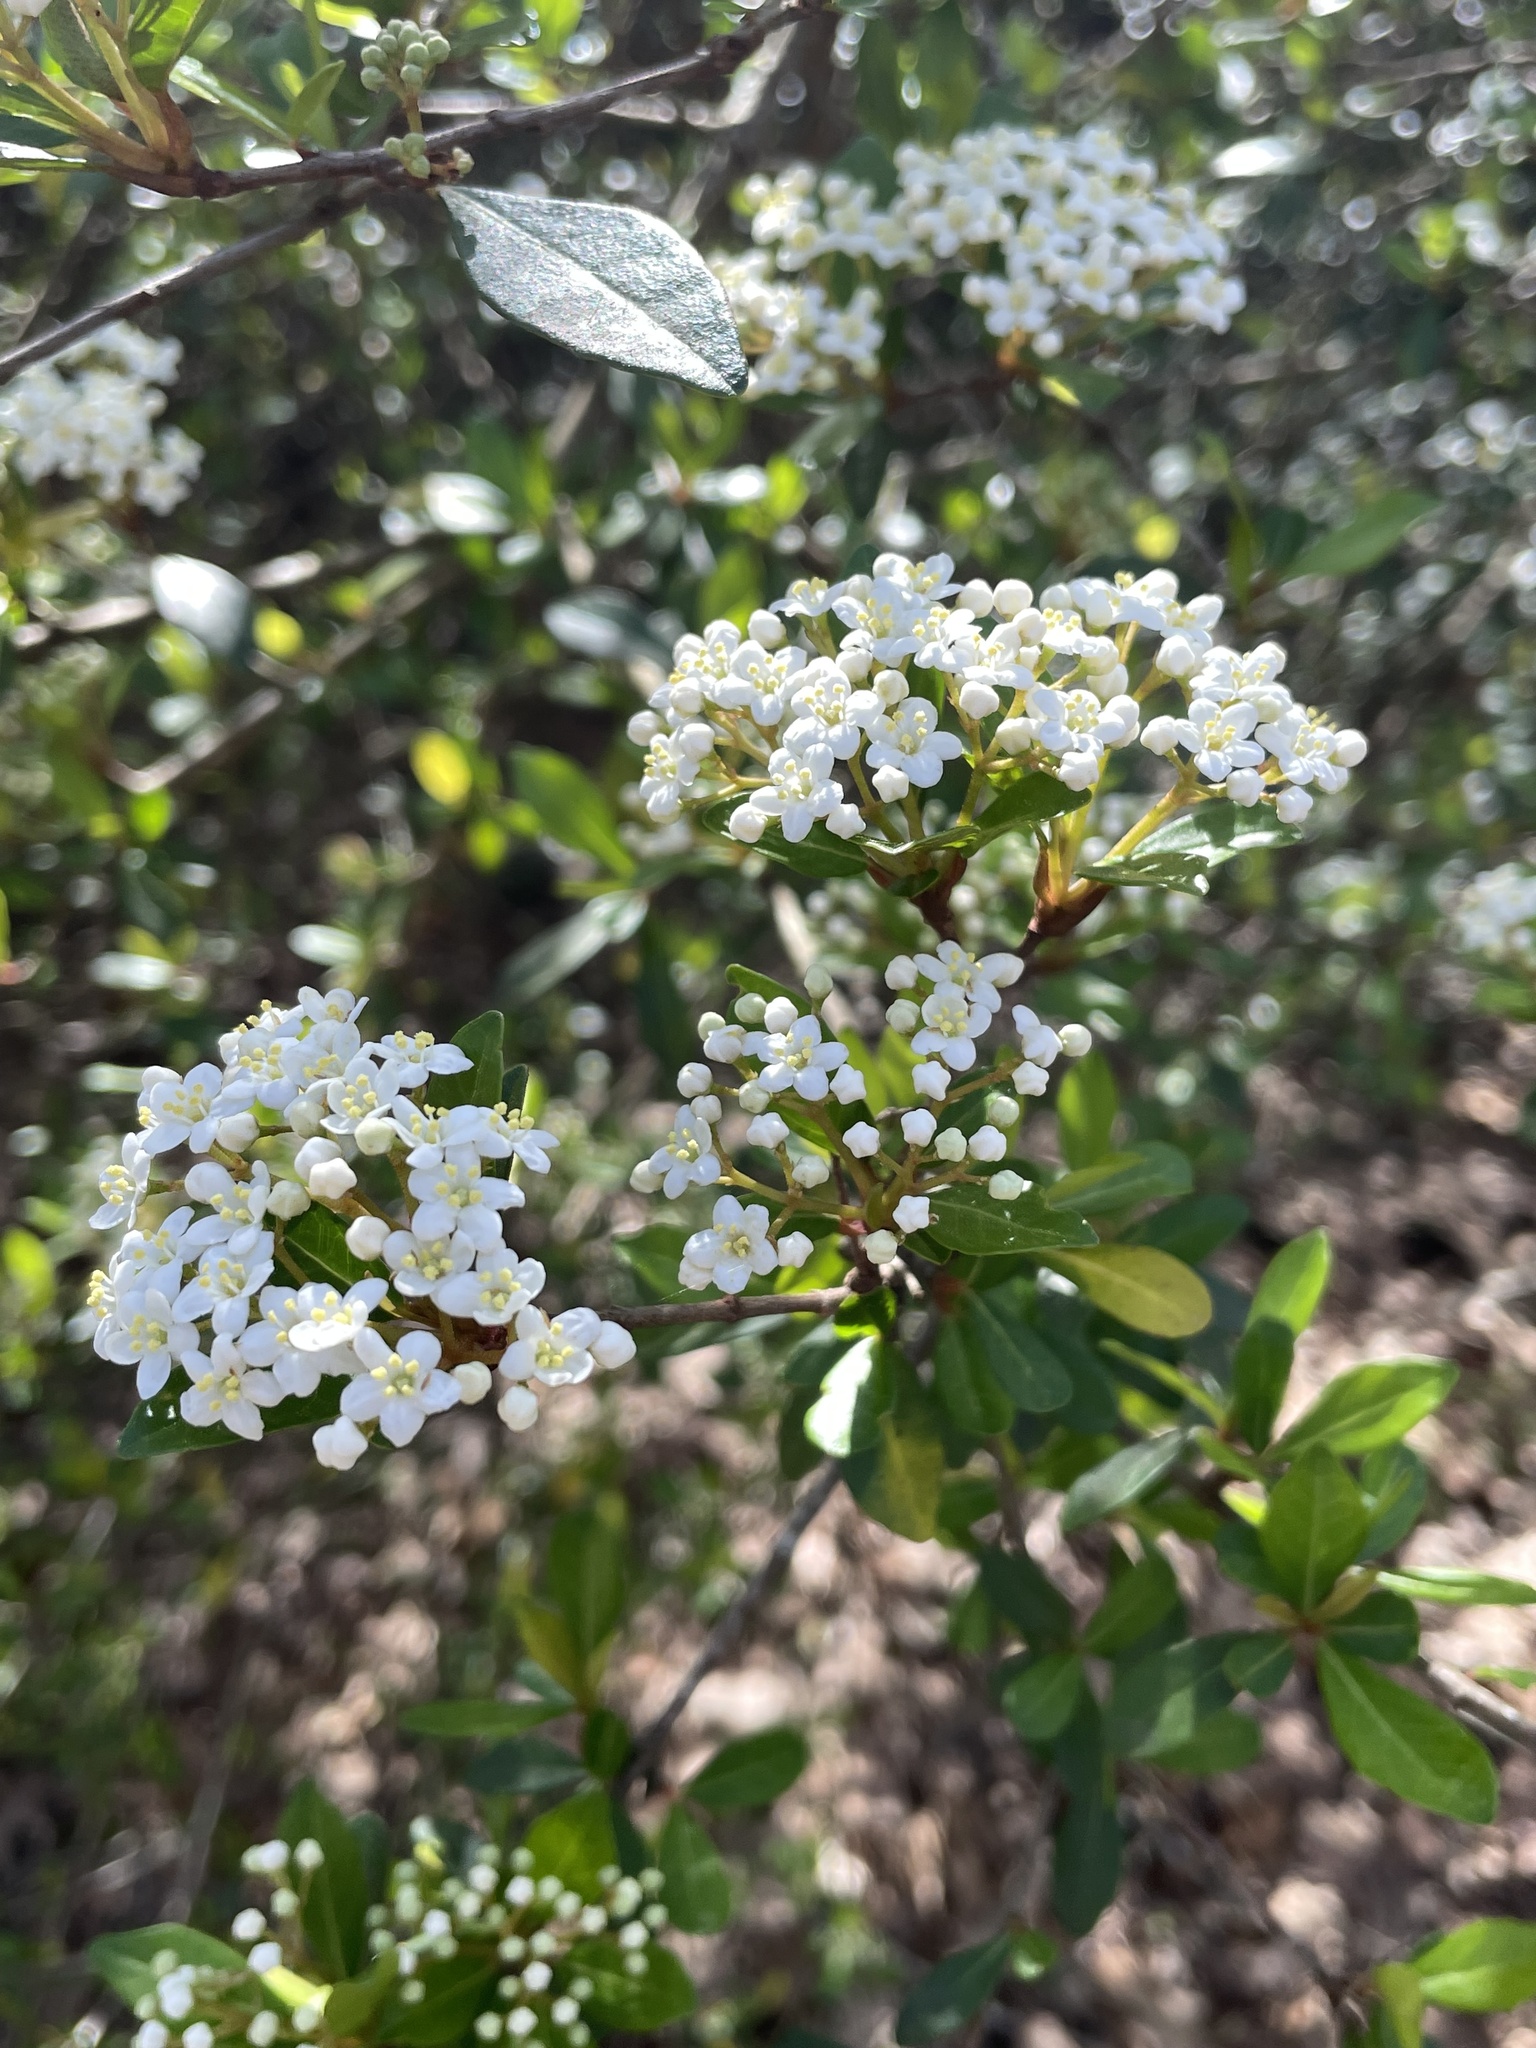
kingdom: Plantae
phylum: Tracheophyta
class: Magnoliopsida
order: Dipsacales
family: Viburnaceae
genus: Viburnum
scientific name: Viburnum obovatum
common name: Walter's viburnum
